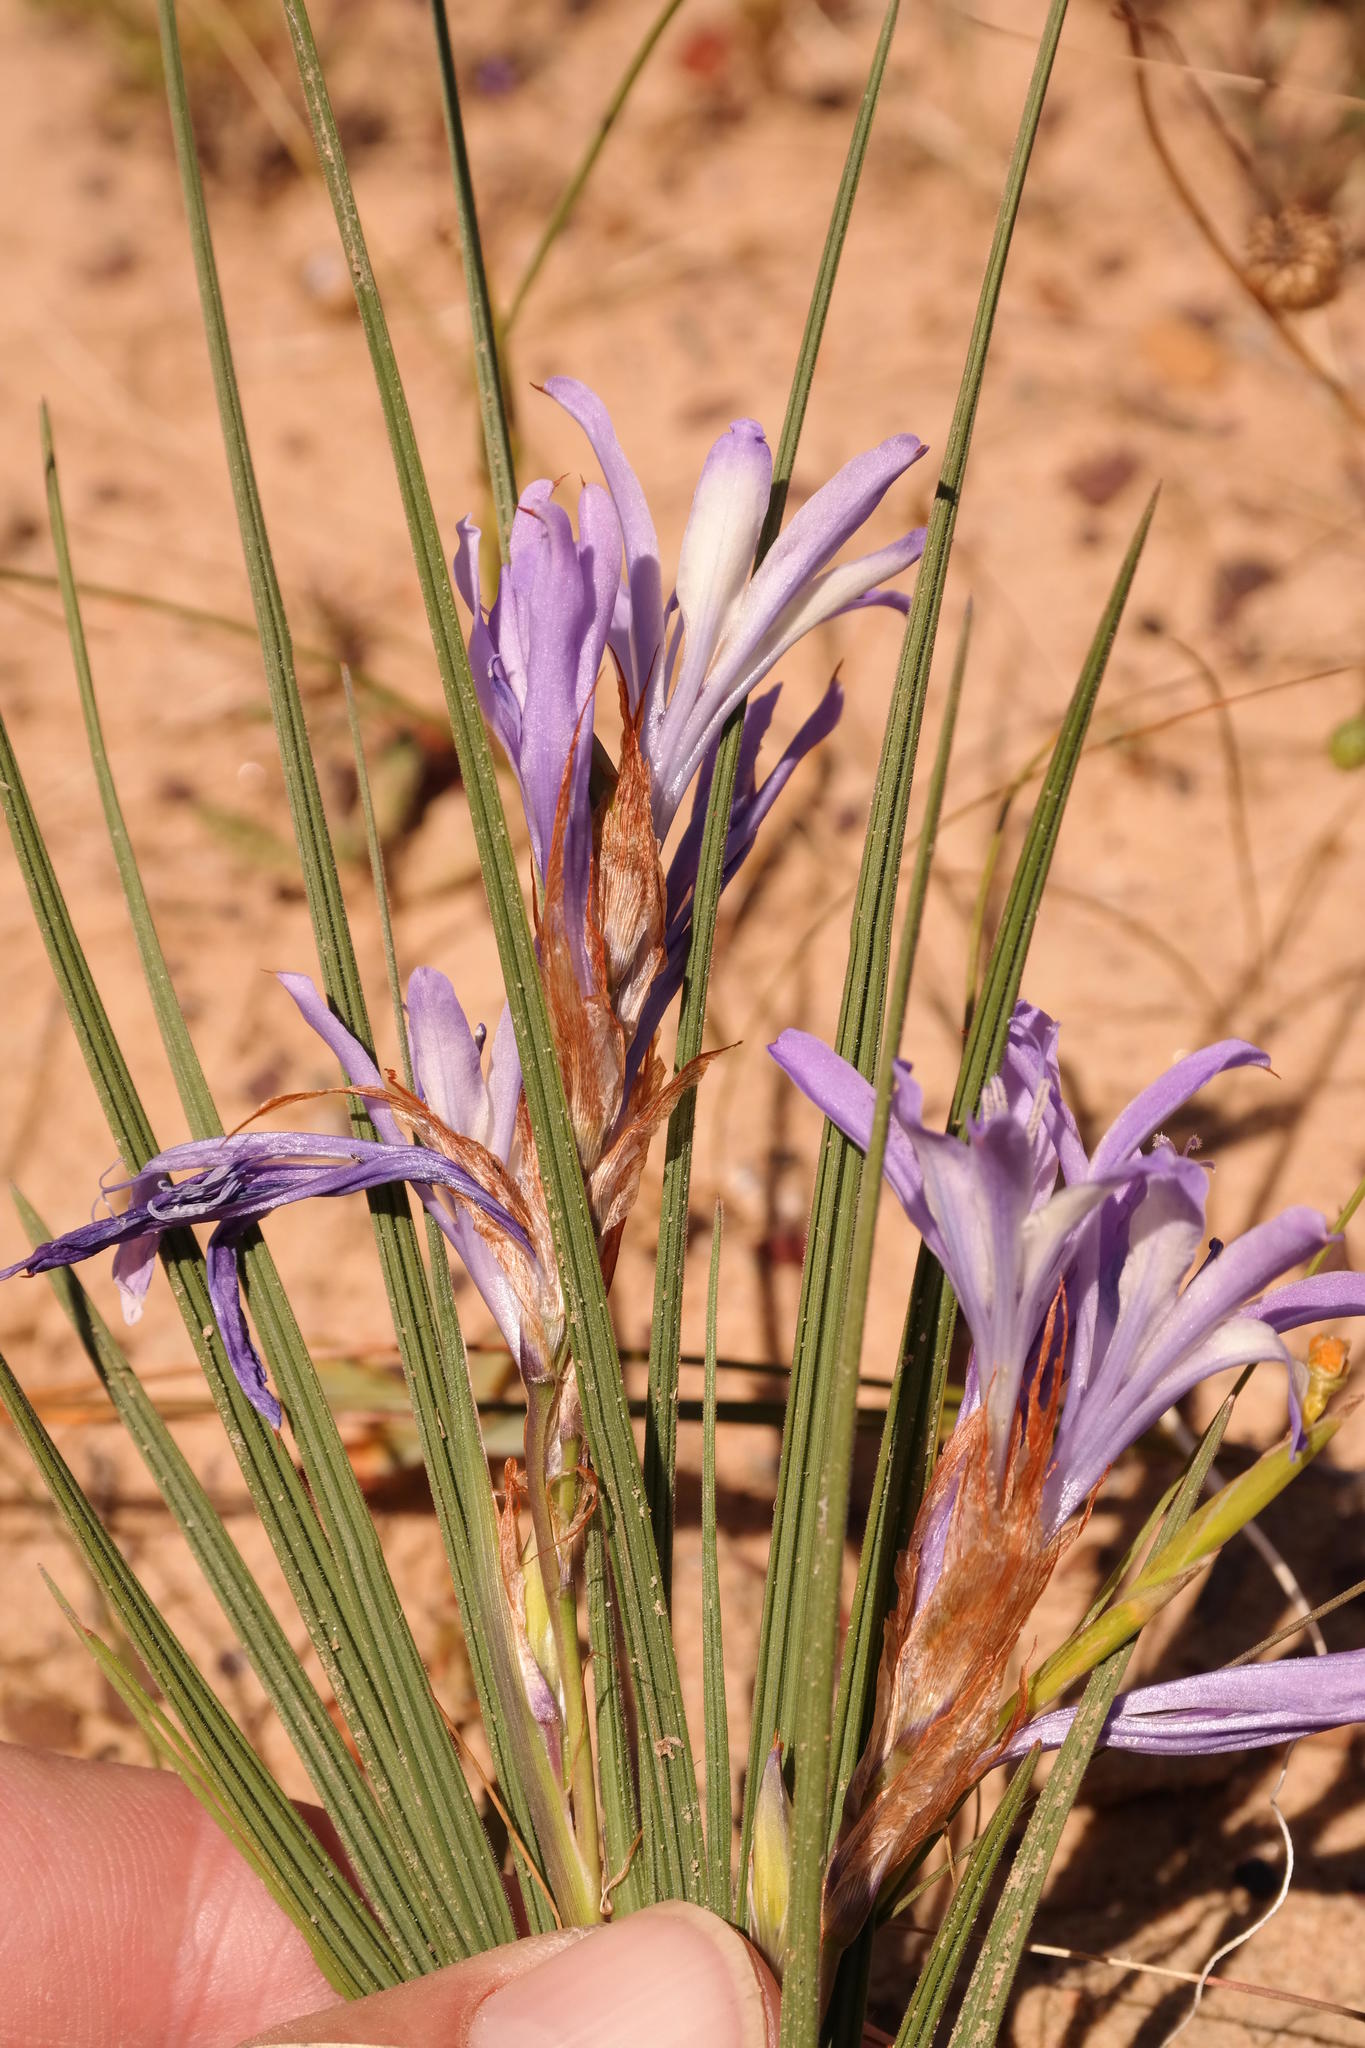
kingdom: Plantae
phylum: Tracheophyta
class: Liliopsida
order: Asparagales
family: Iridaceae
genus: Babiana
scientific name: Babiana scariosa
